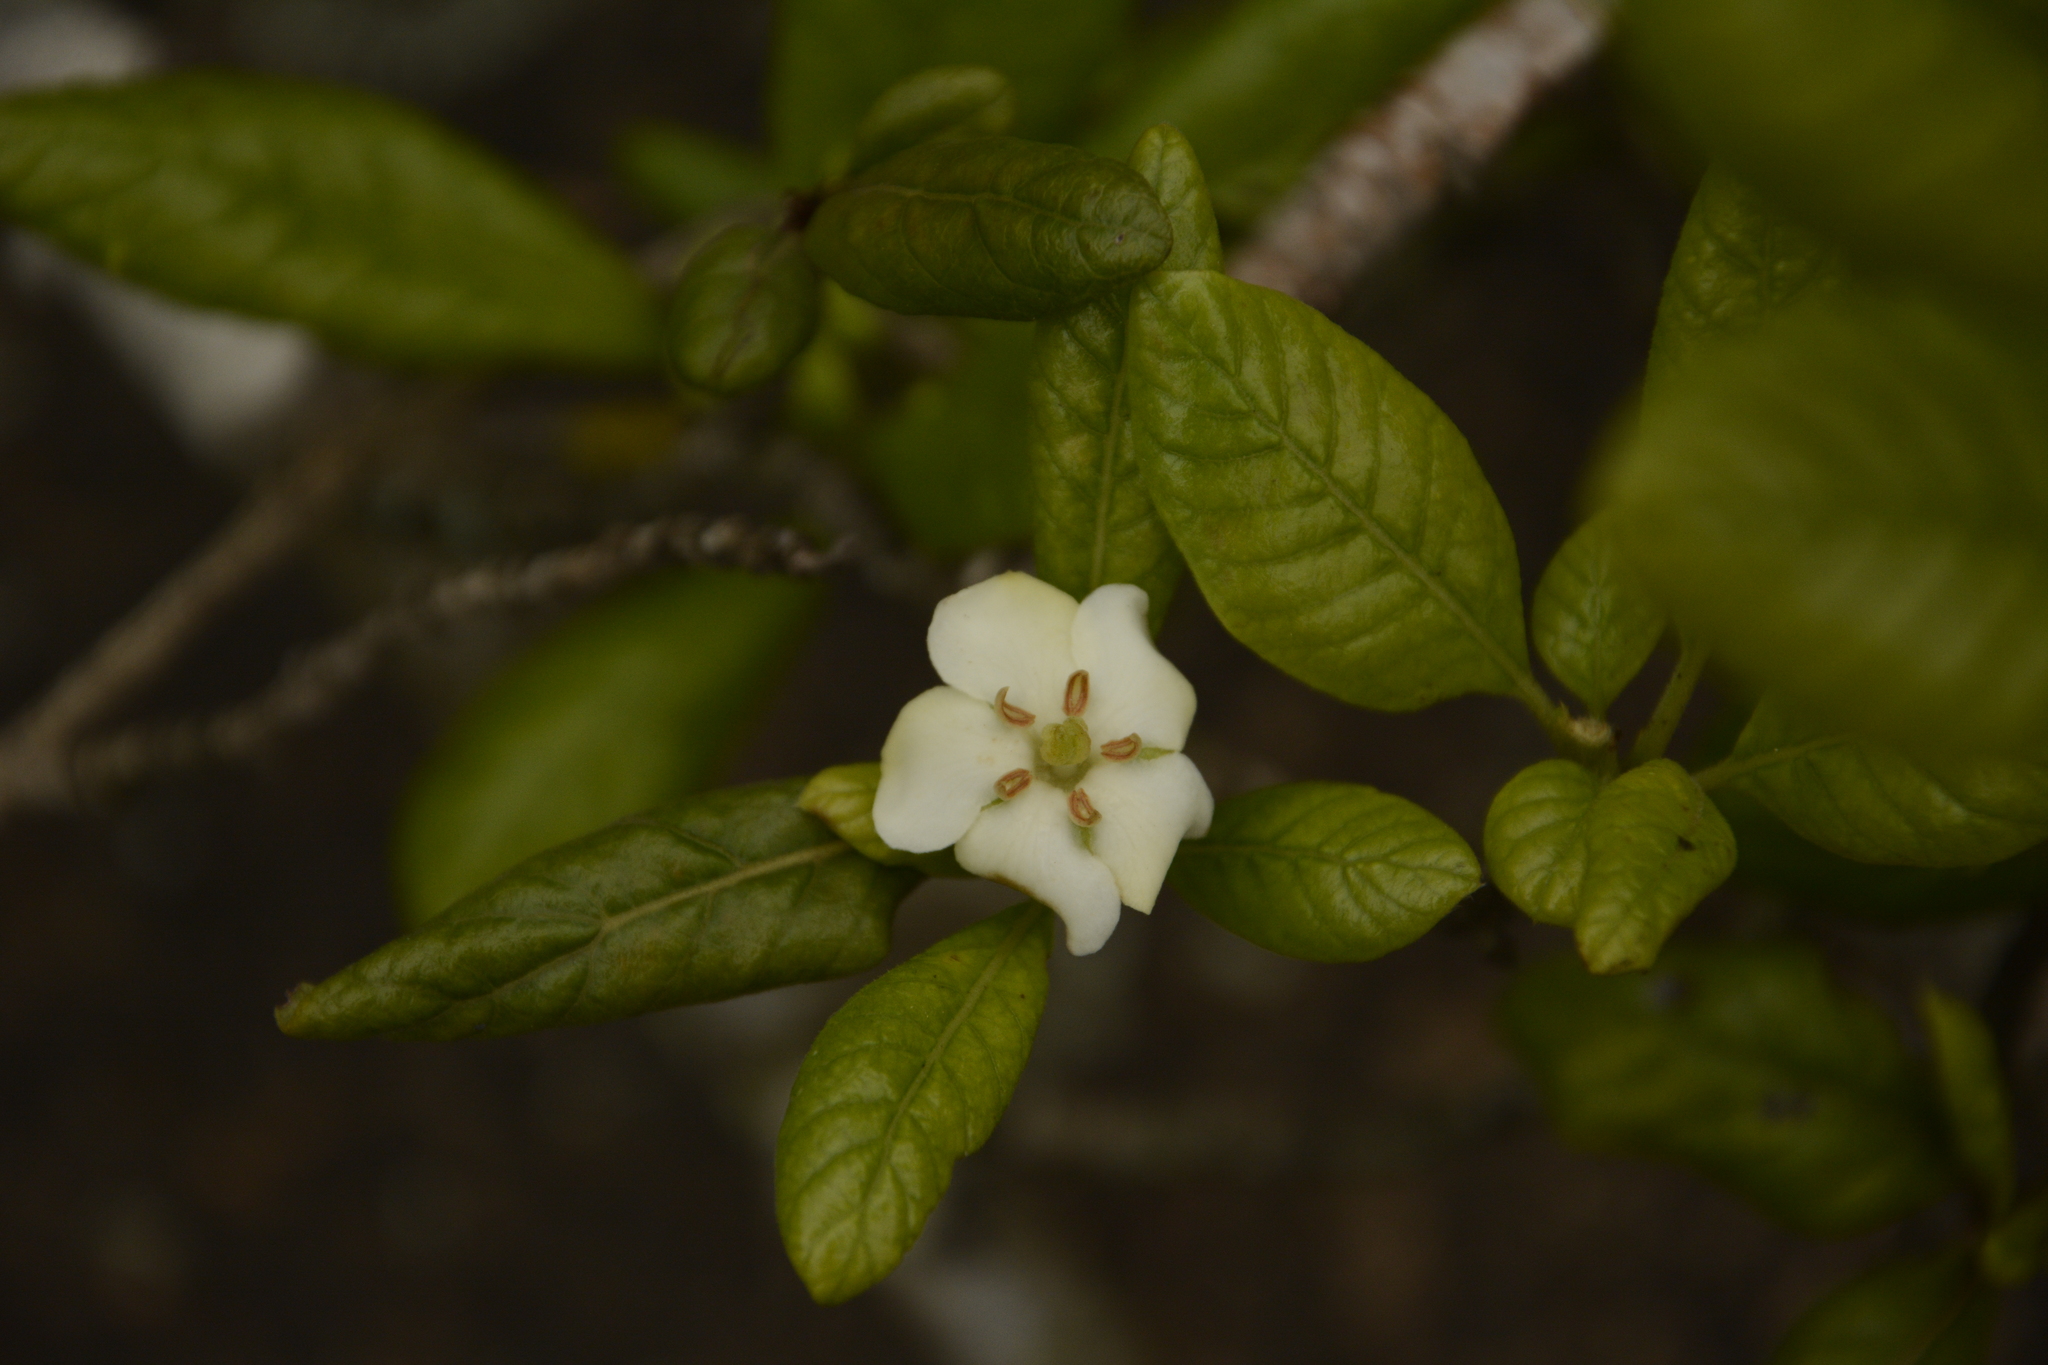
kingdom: Plantae
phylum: Tracheophyta
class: Magnoliopsida
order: Gentianales
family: Rubiaceae
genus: Catunaregam
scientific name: Catunaregam spinosa
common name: Emetic-nut
